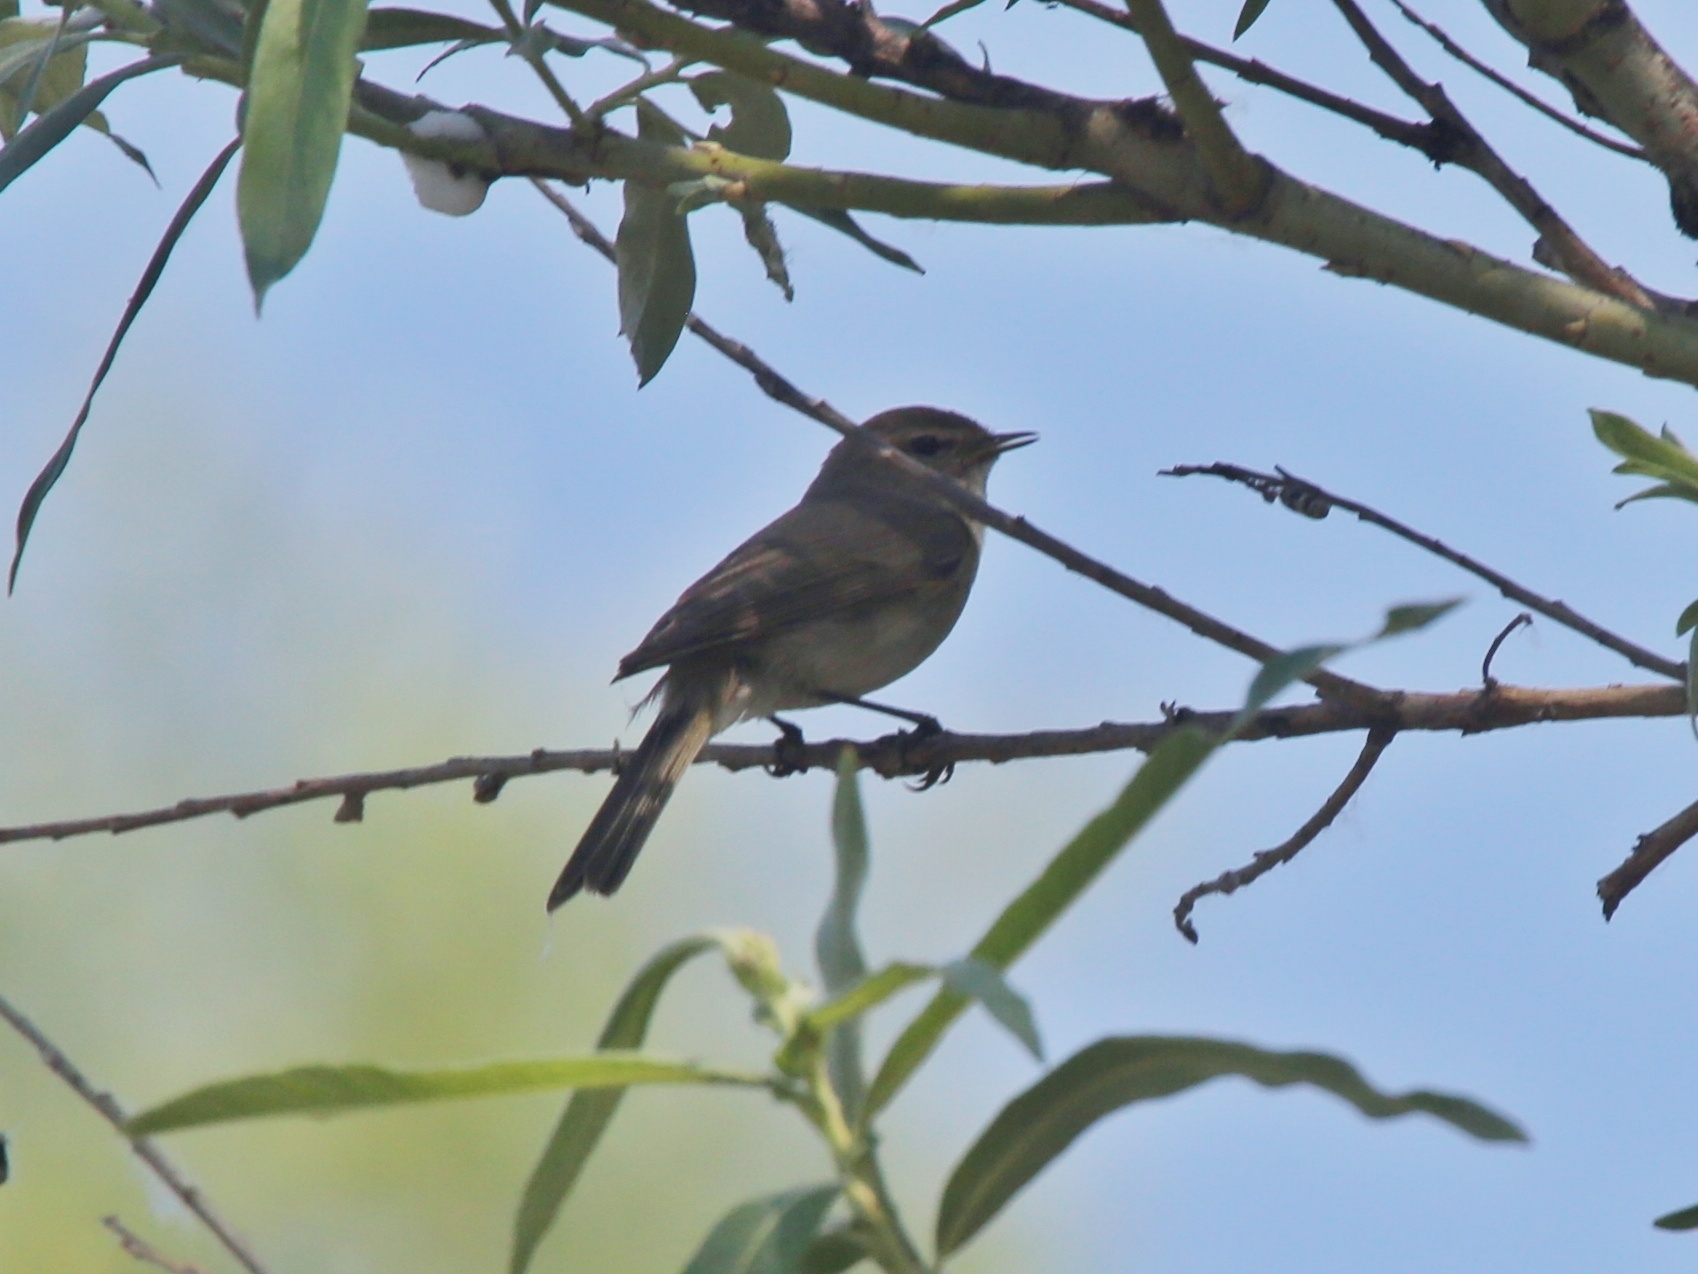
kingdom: Animalia
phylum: Chordata
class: Aves
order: Passeriformes
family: Phylloscopidae
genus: Phylloscopus
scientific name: Phylloscopus collybita
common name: Common chiffchaff
